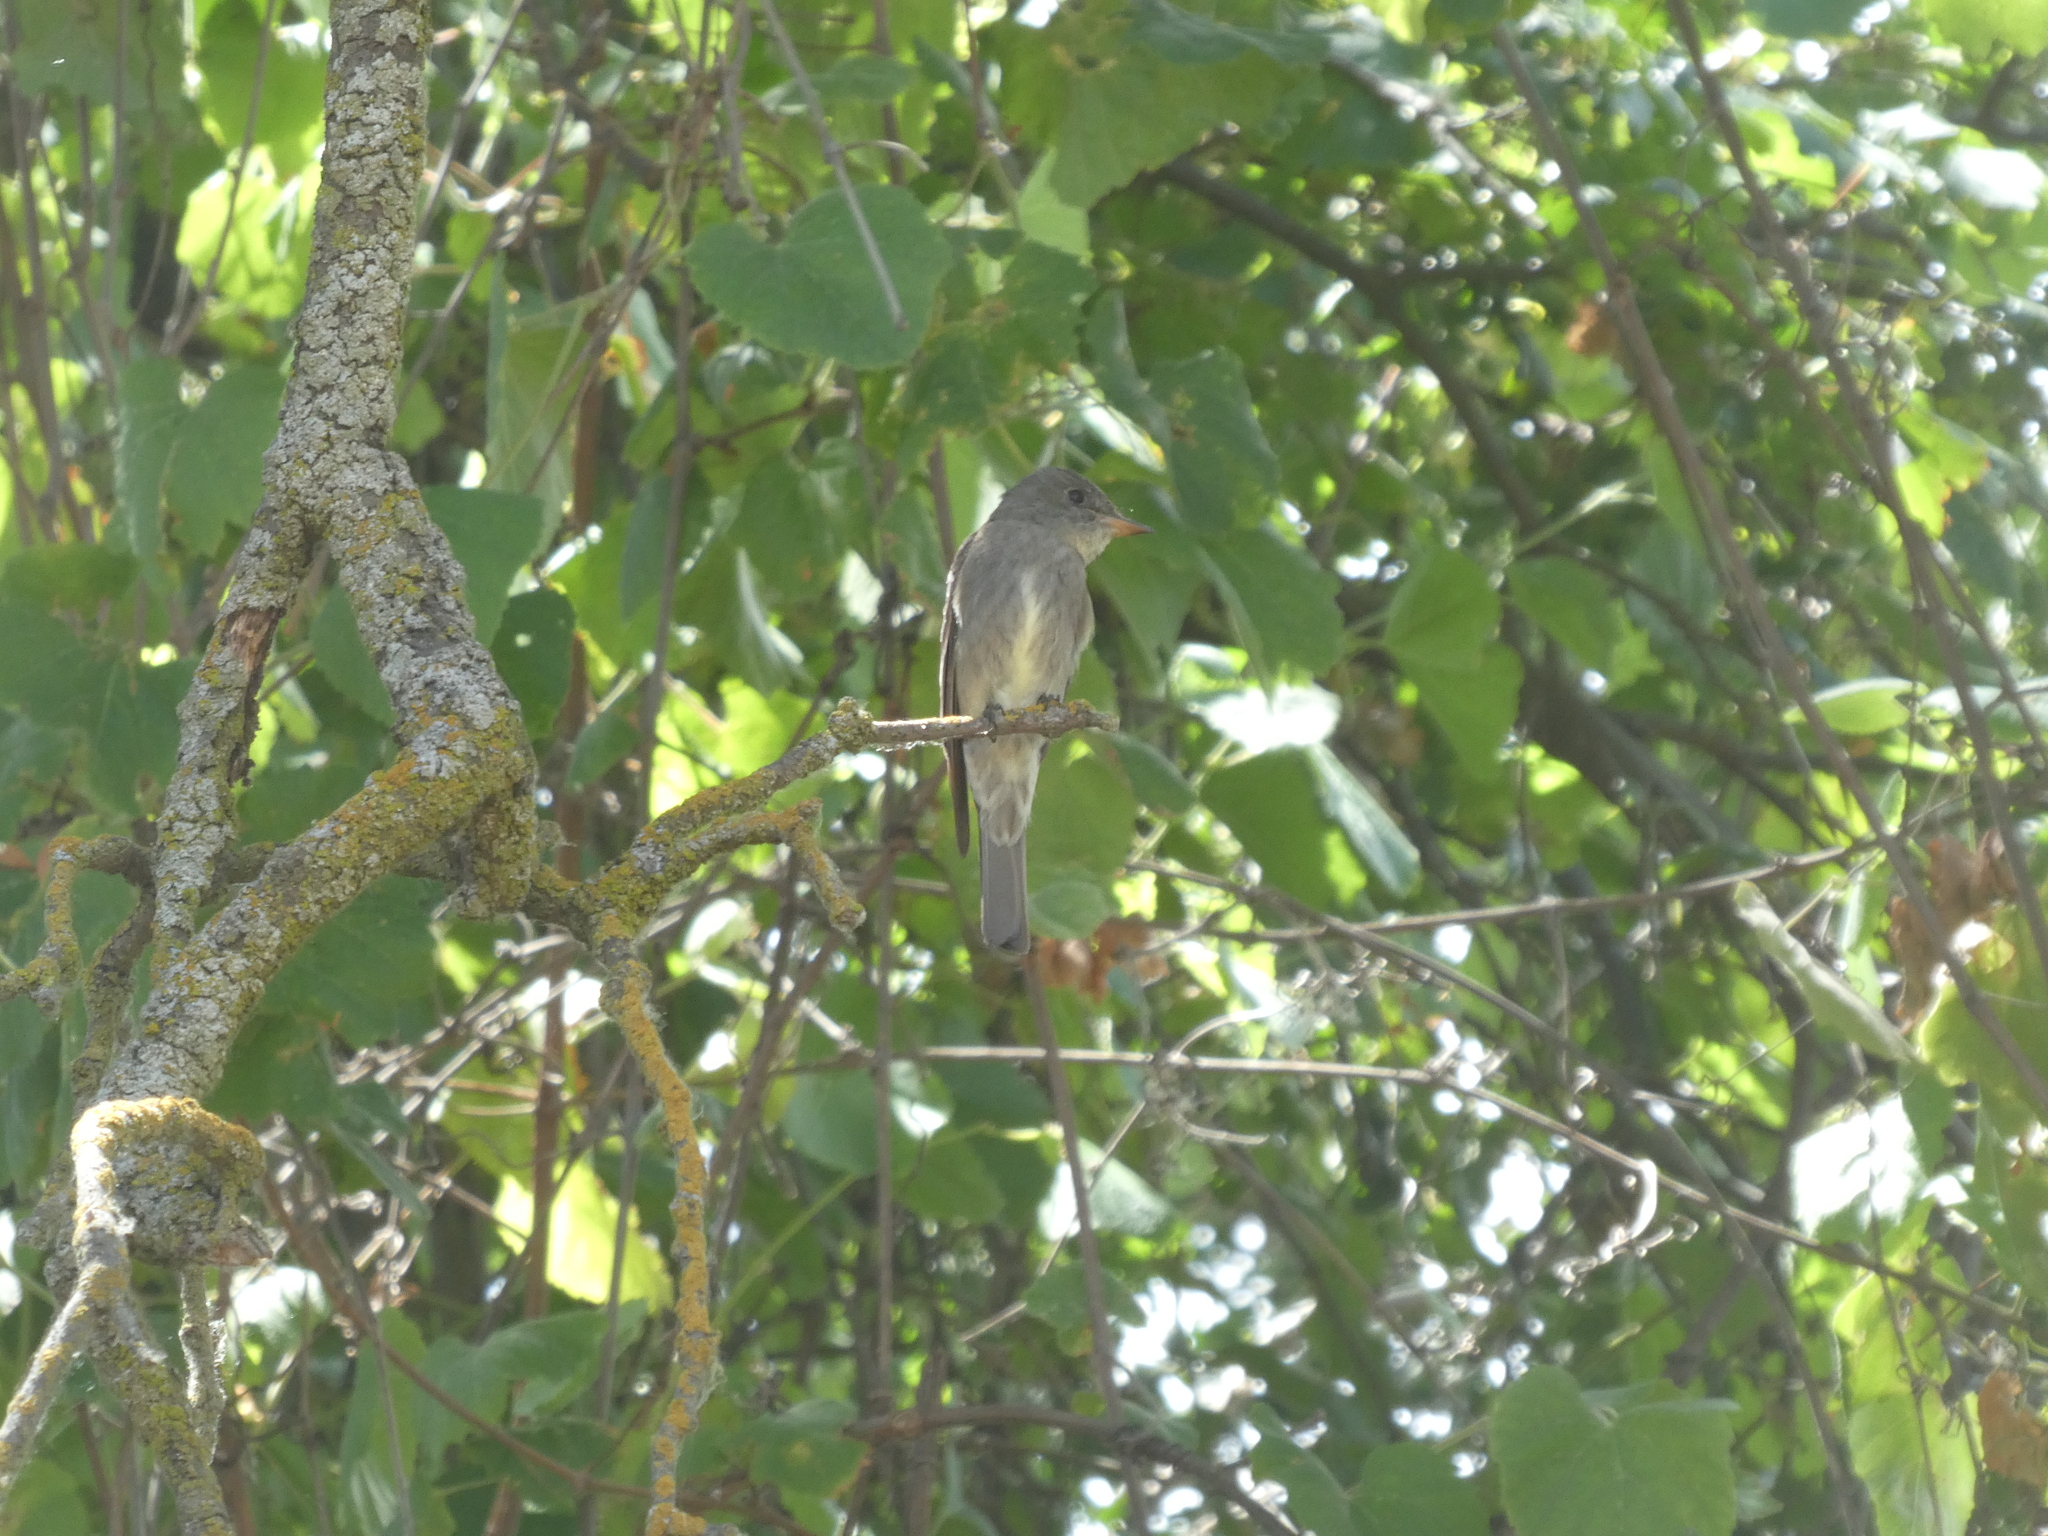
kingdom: Animalia
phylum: Chordata
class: Aves
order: Passeriformes
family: Tyrannidae
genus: Contopus
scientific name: Contopus sordidulus
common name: Western wood-pewee
